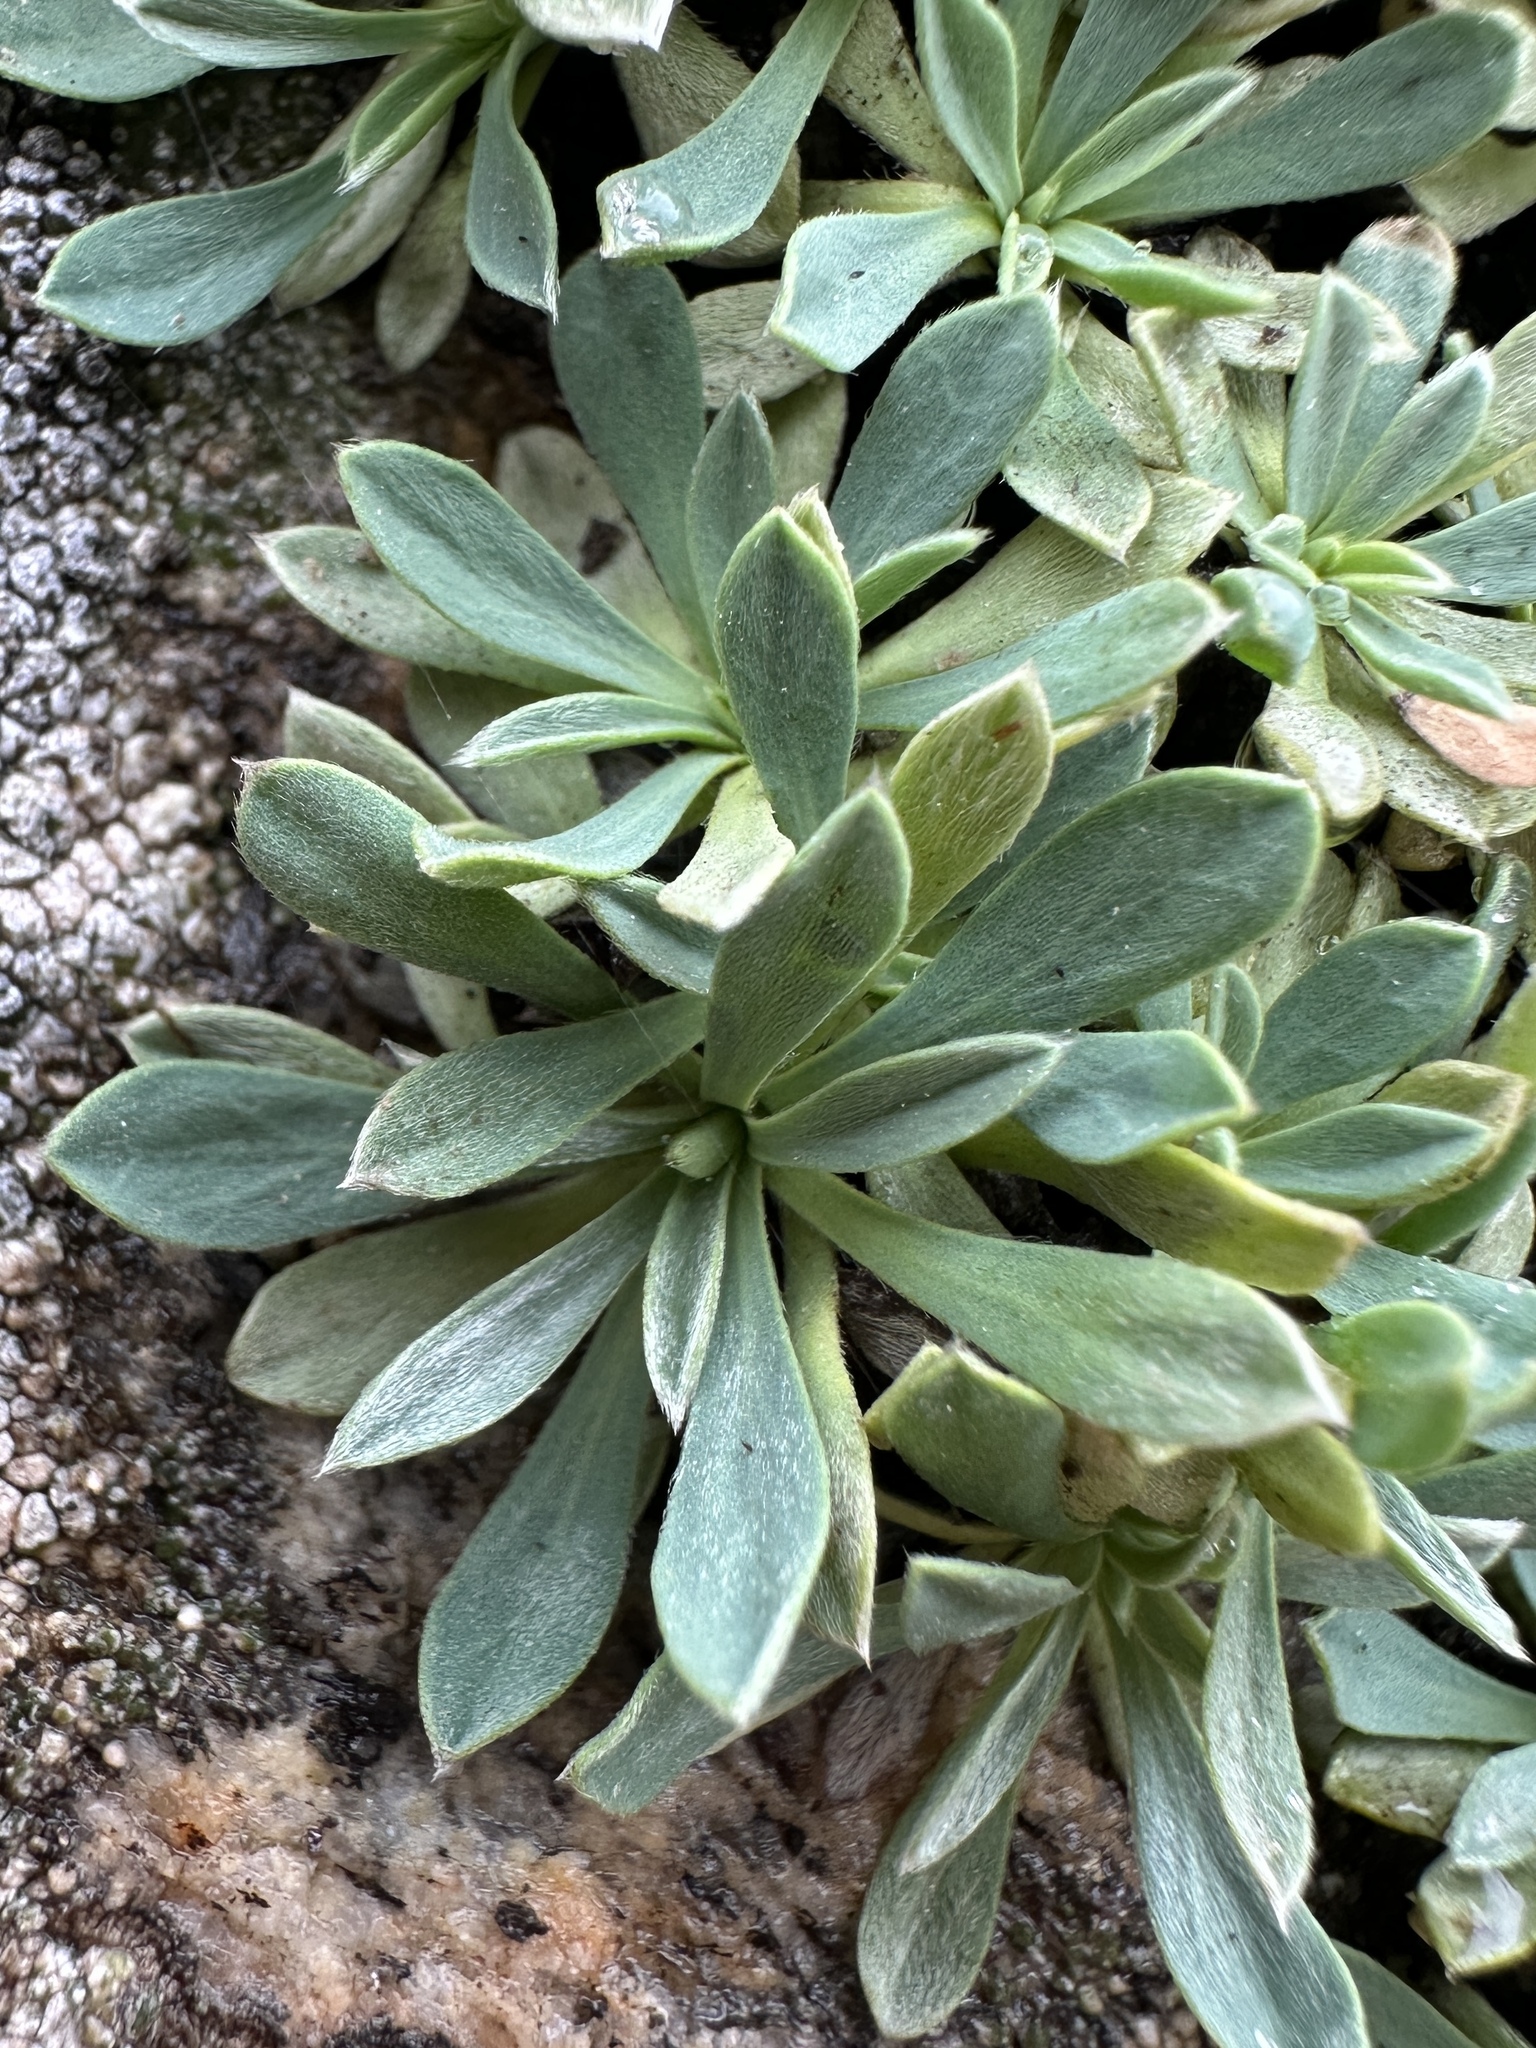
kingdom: Plantae
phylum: Tracheophyta
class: Magnoliopsida
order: Rosales
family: Rosaceae
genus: Petrophytum
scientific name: Petrophytum caespitosum
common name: Mat rockspirea
